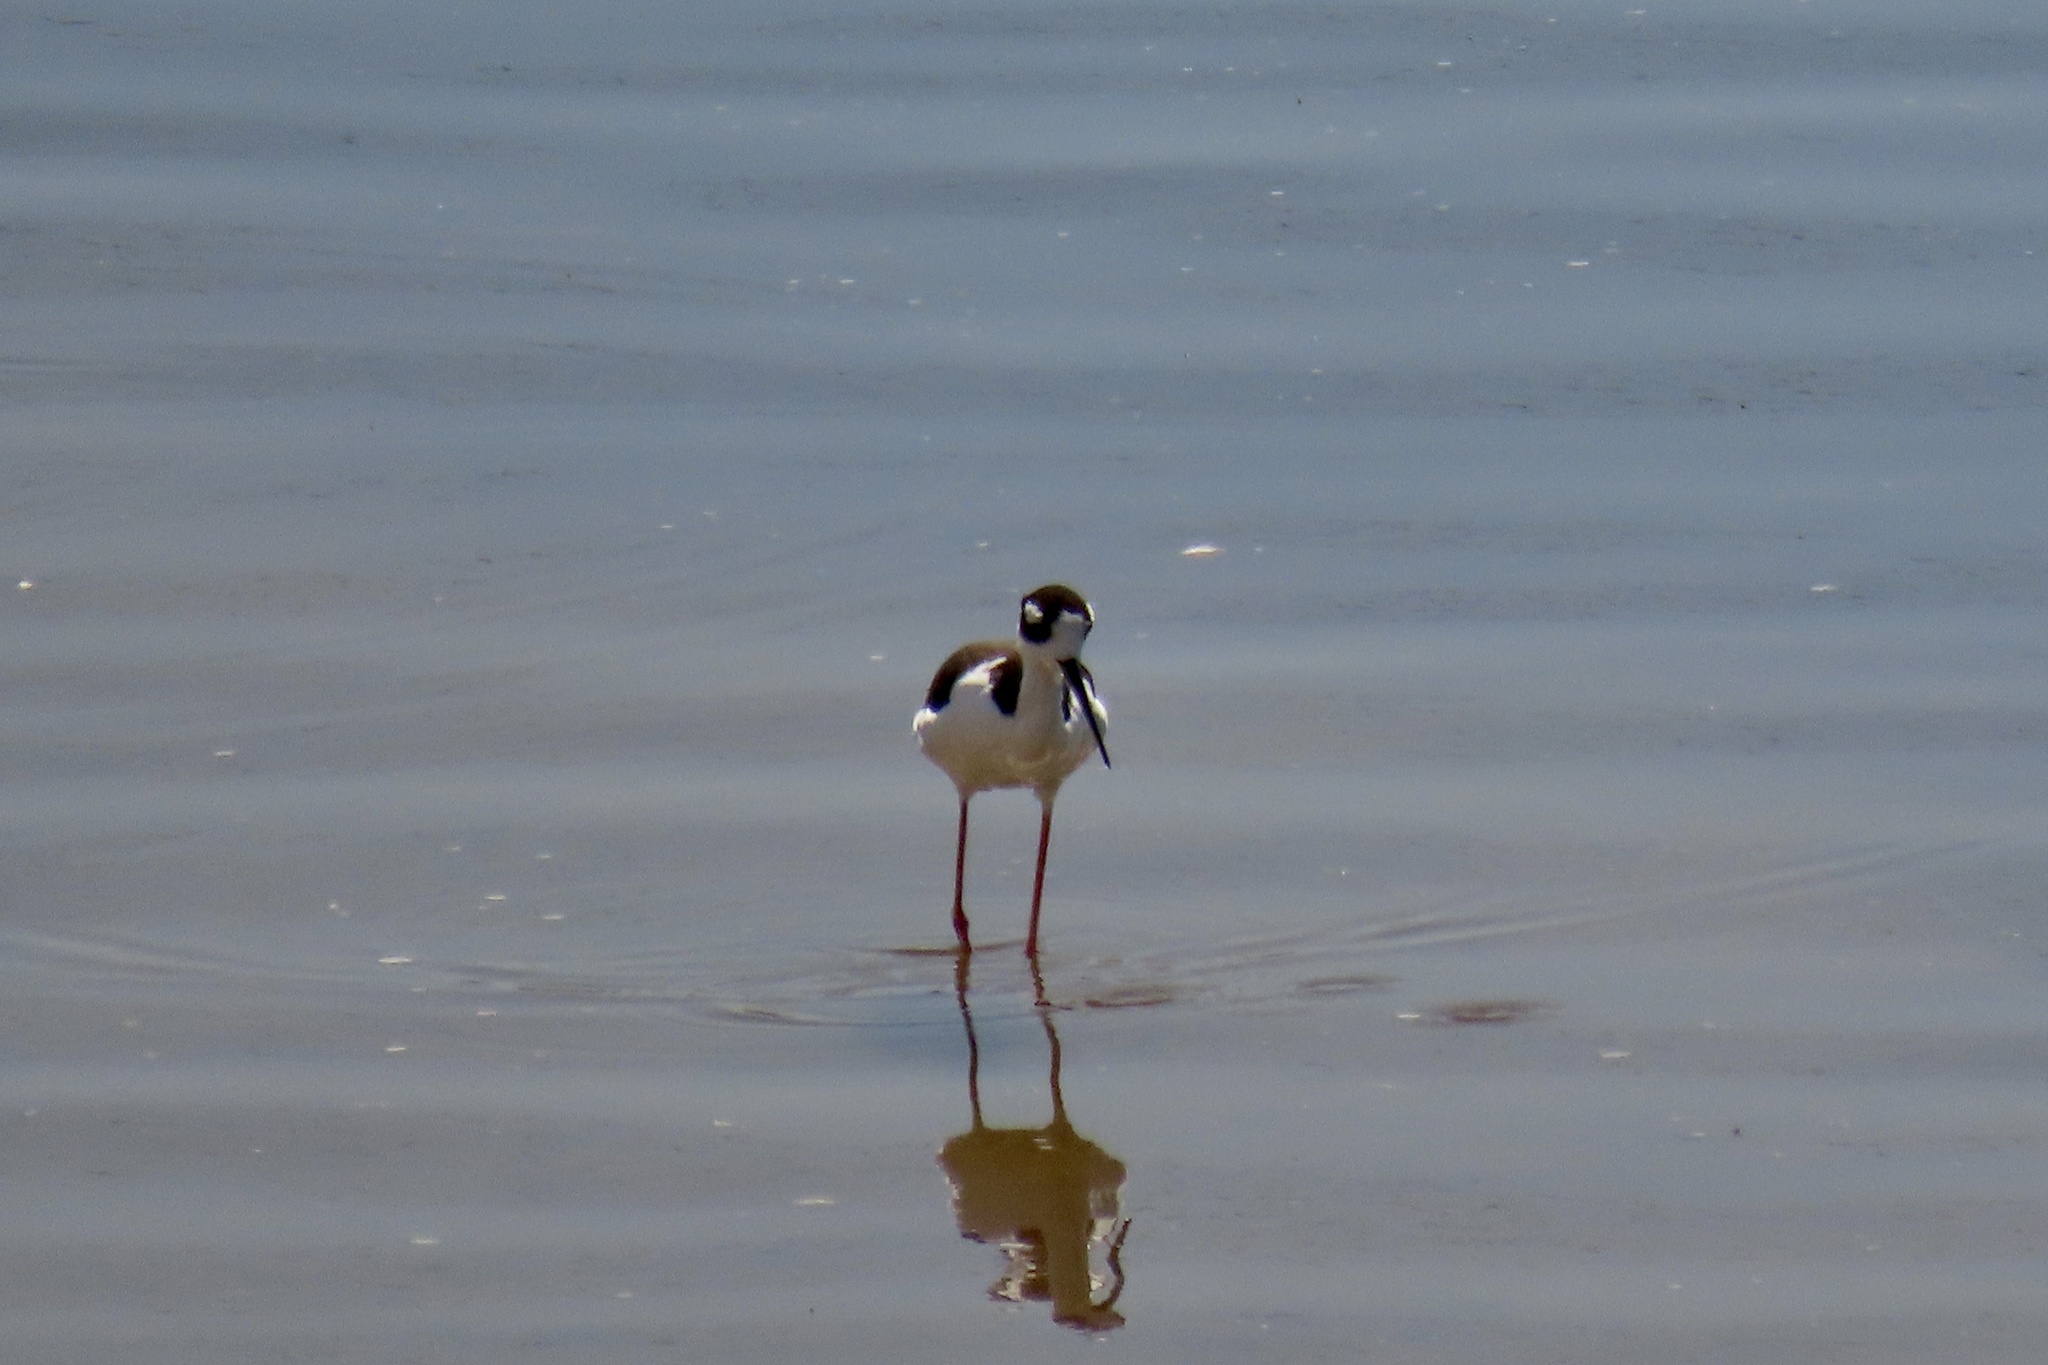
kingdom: Animalia
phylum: Chordata
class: Aves
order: Charadriiformes
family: Recurvirostridae
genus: Himantopus
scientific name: Himantopus mexicanus
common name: Black-necked stilt
